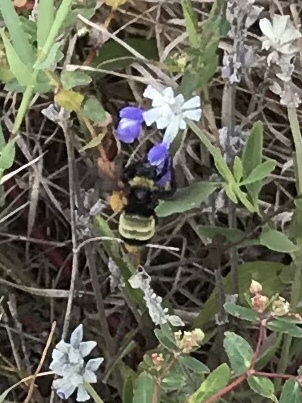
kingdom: Animalia
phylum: Arthropoda
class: Insecta
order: Hymenoptera
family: Apidae
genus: Bombus
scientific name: Bombus pensylvanicus
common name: Bumble bee
